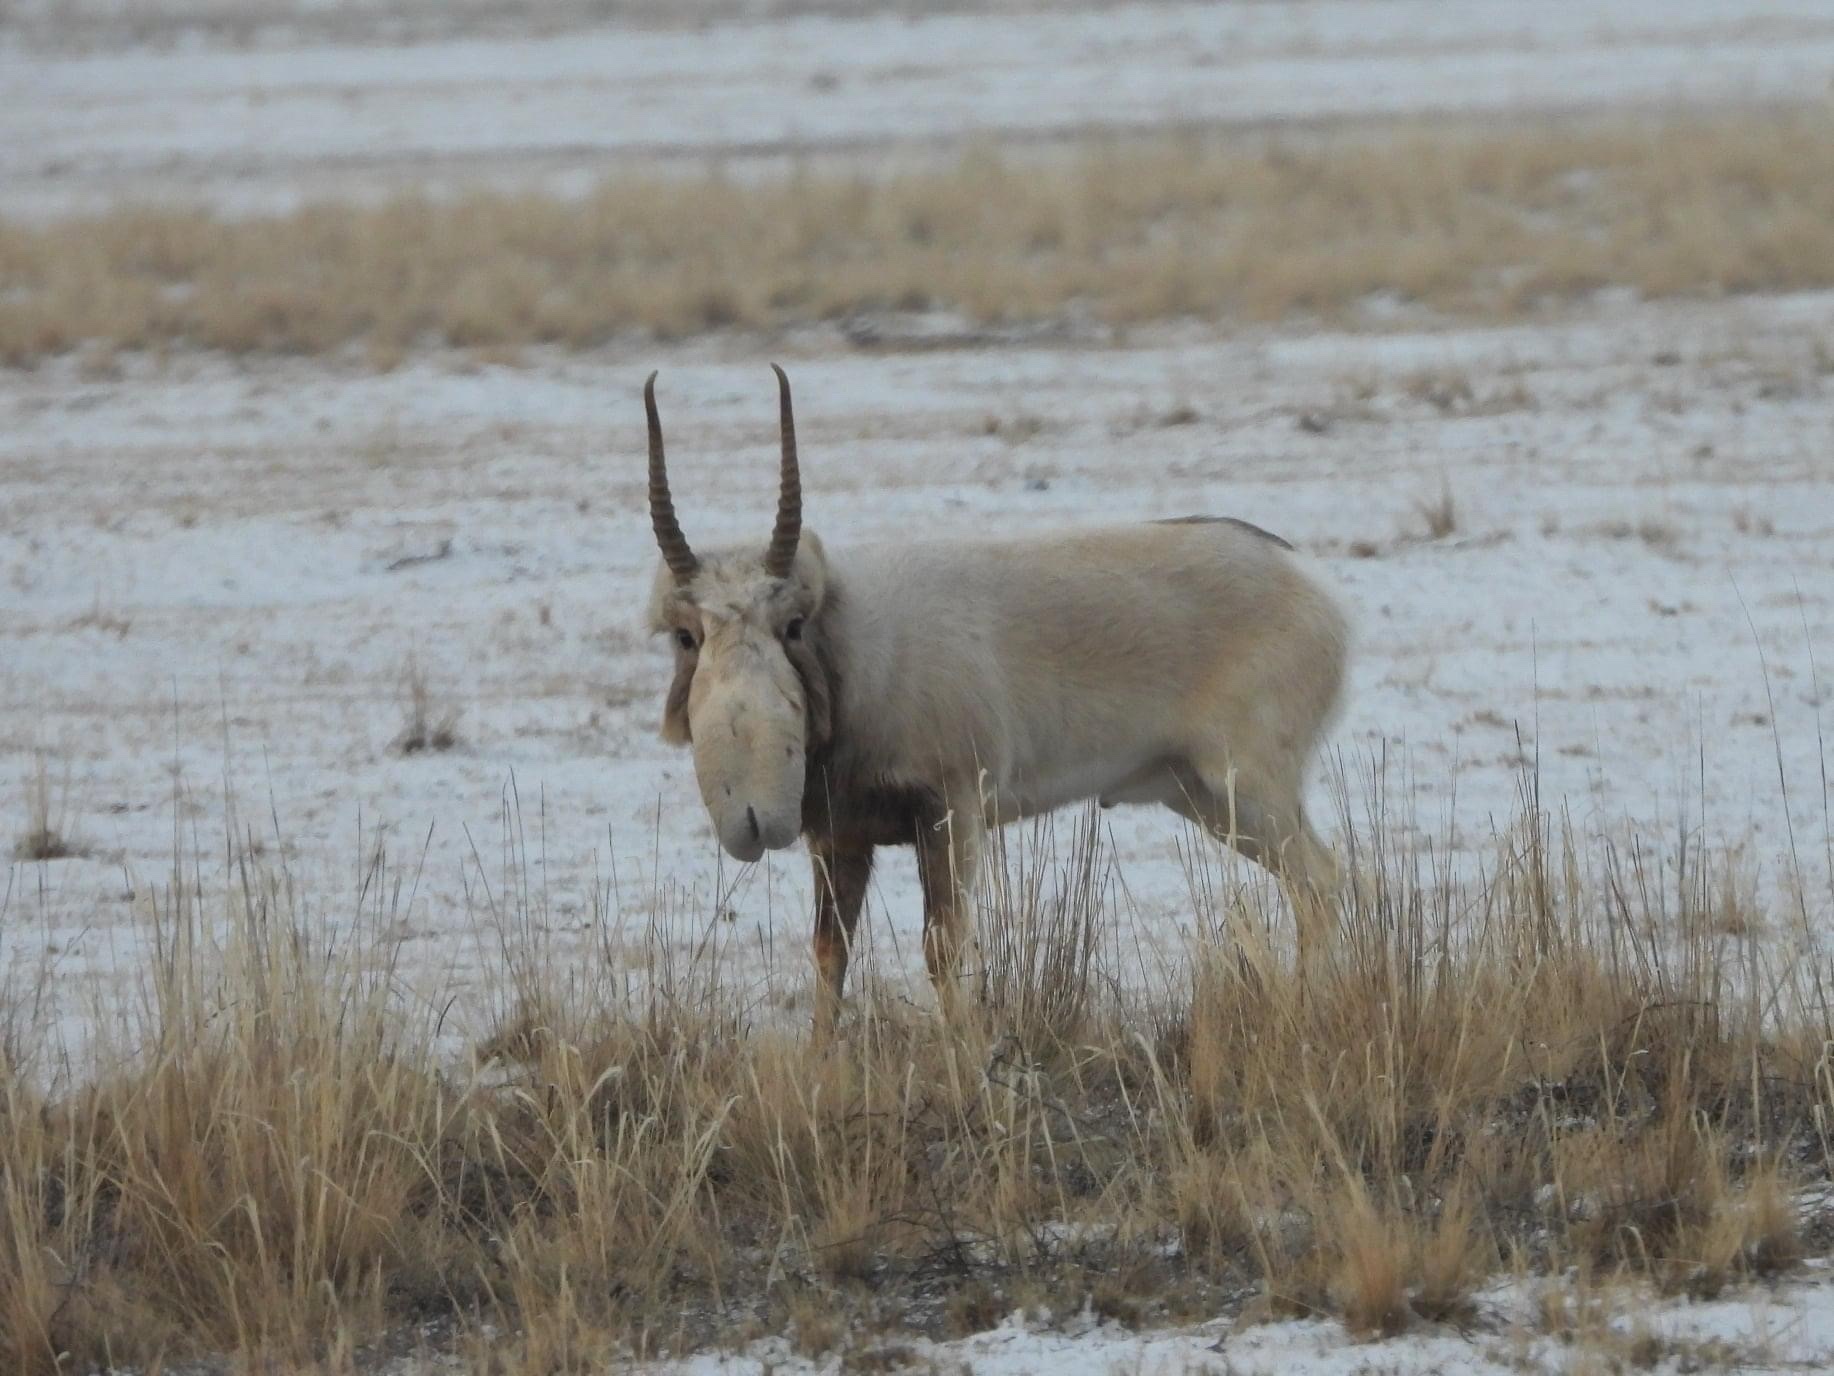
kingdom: Animalia
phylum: Chordata
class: Mammalia
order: Artiodactyla
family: Bovidae
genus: Saiga
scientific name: Saiga tatarica
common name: Saiga
